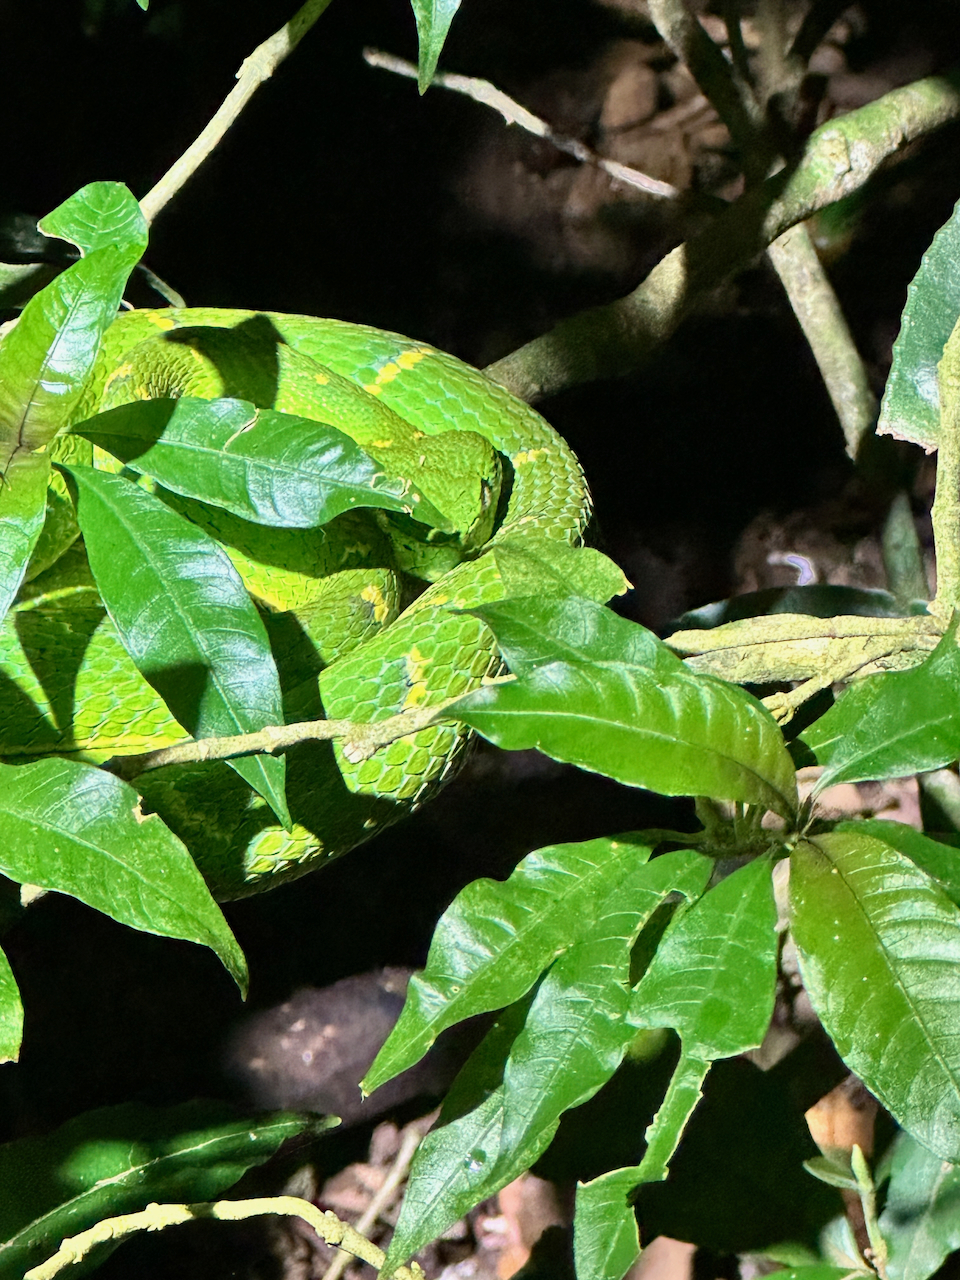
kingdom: Animalia
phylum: Chordata
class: Squamata
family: Viperidae
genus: Bothriechis
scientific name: Bothriechis lateralis
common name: Coffee palm viper
